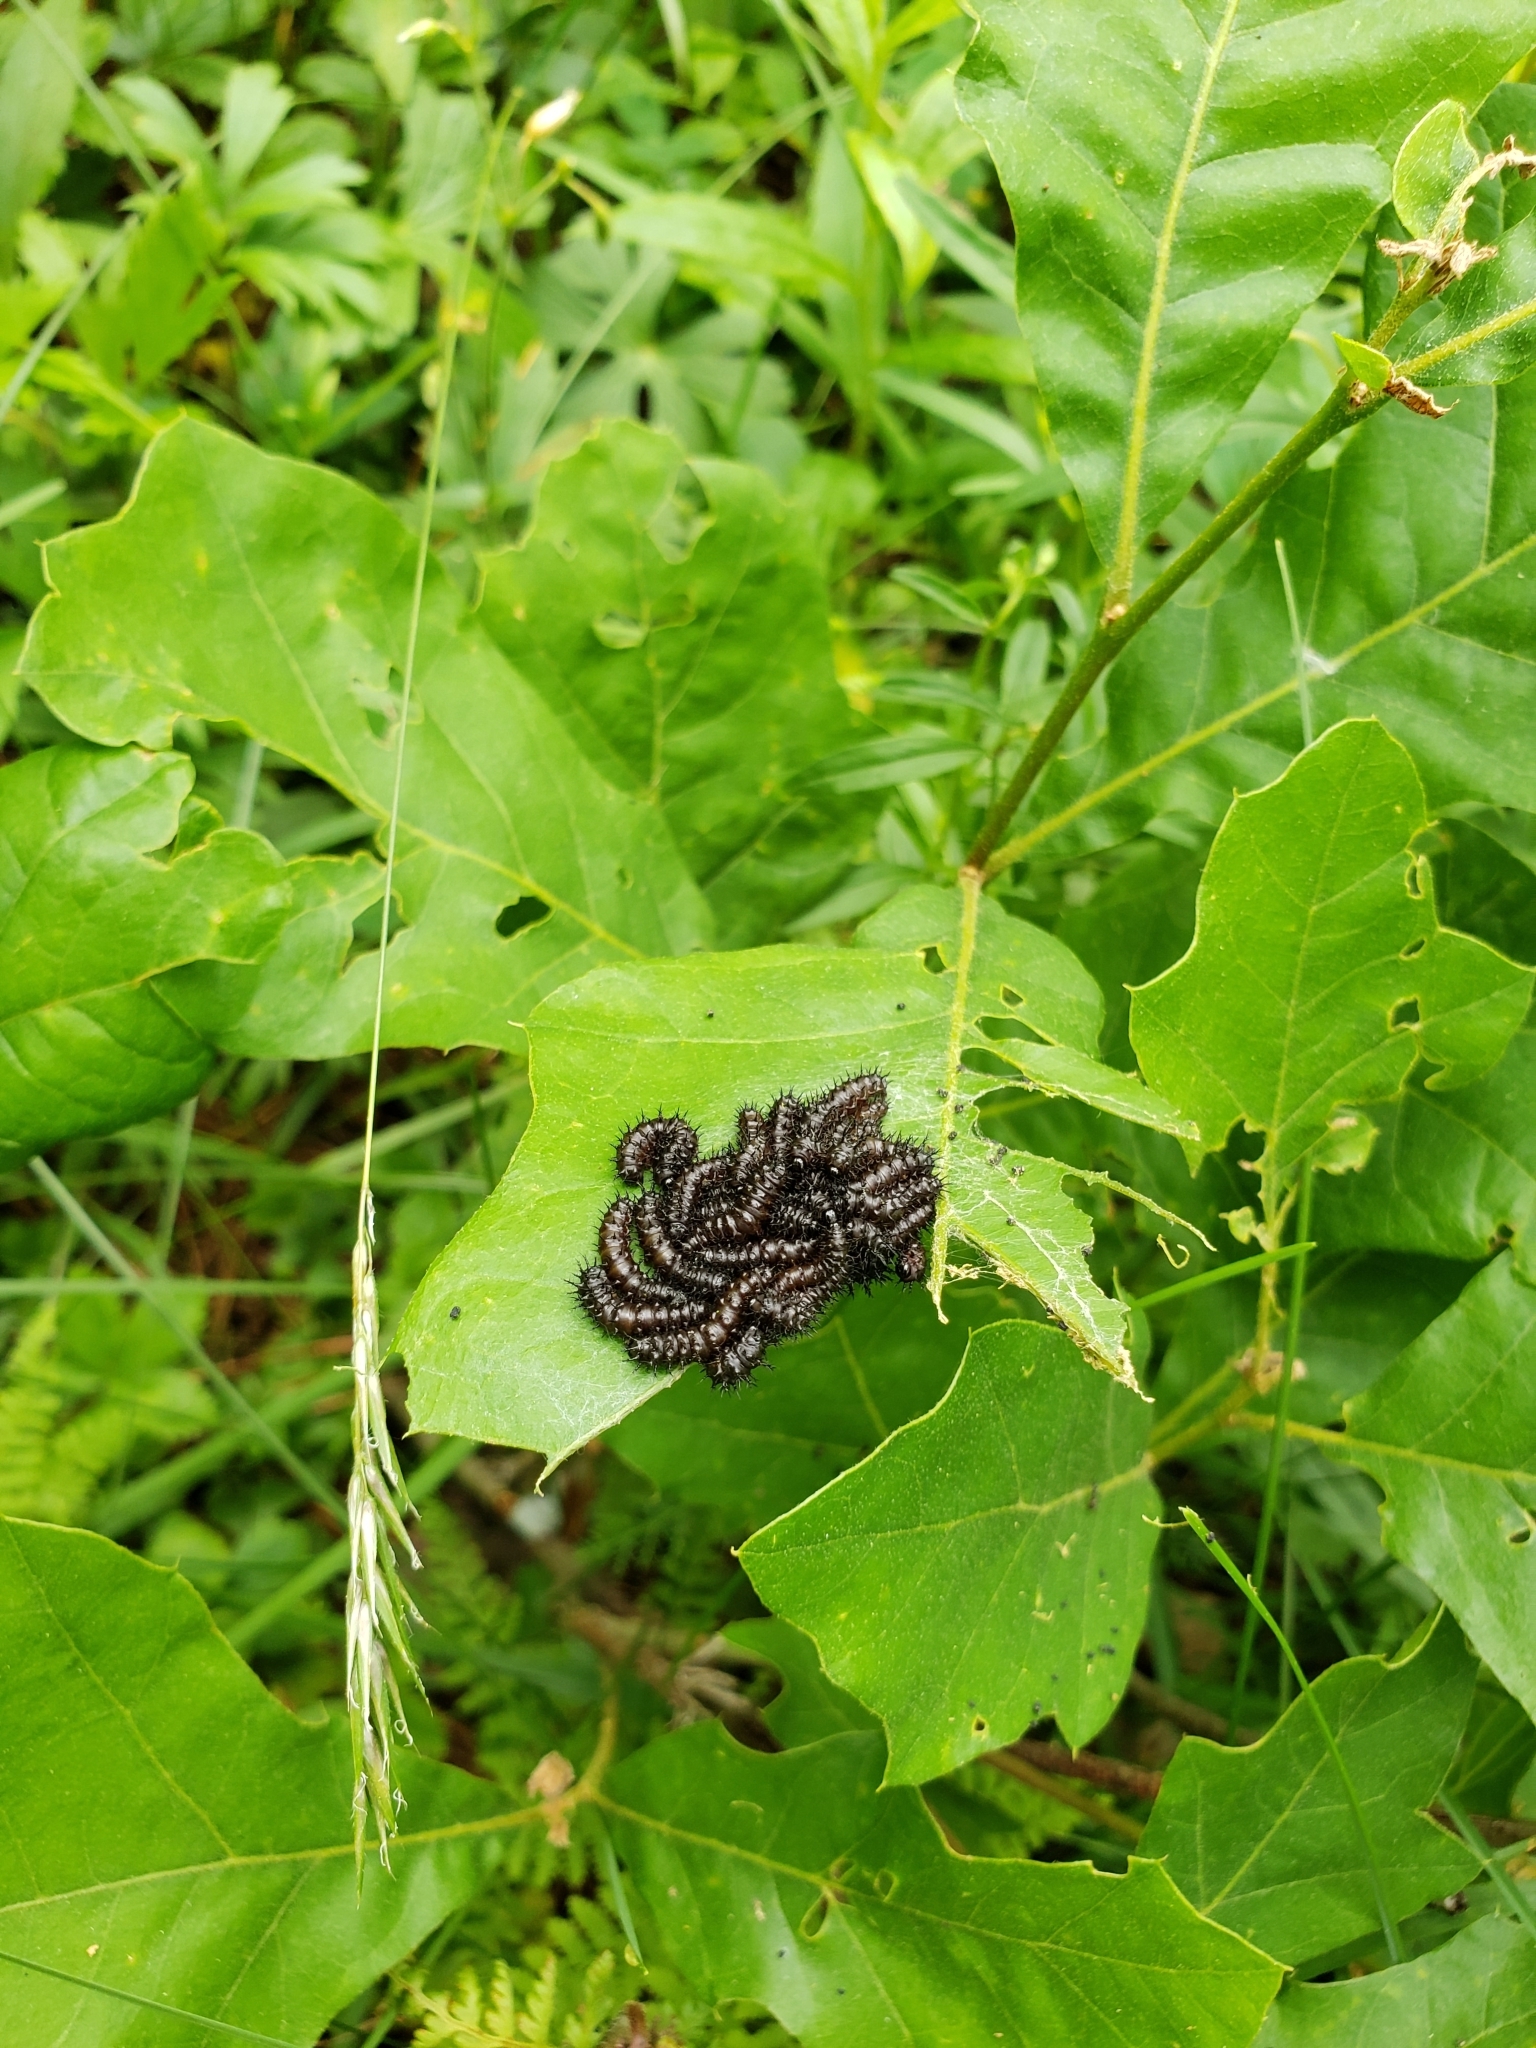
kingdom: Animalia
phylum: Arthropoda
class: Insecta
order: Lepidoptera
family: Saturniidae
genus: Hemileuca
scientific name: Hemileuca maia
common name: Eastern buckmoth
